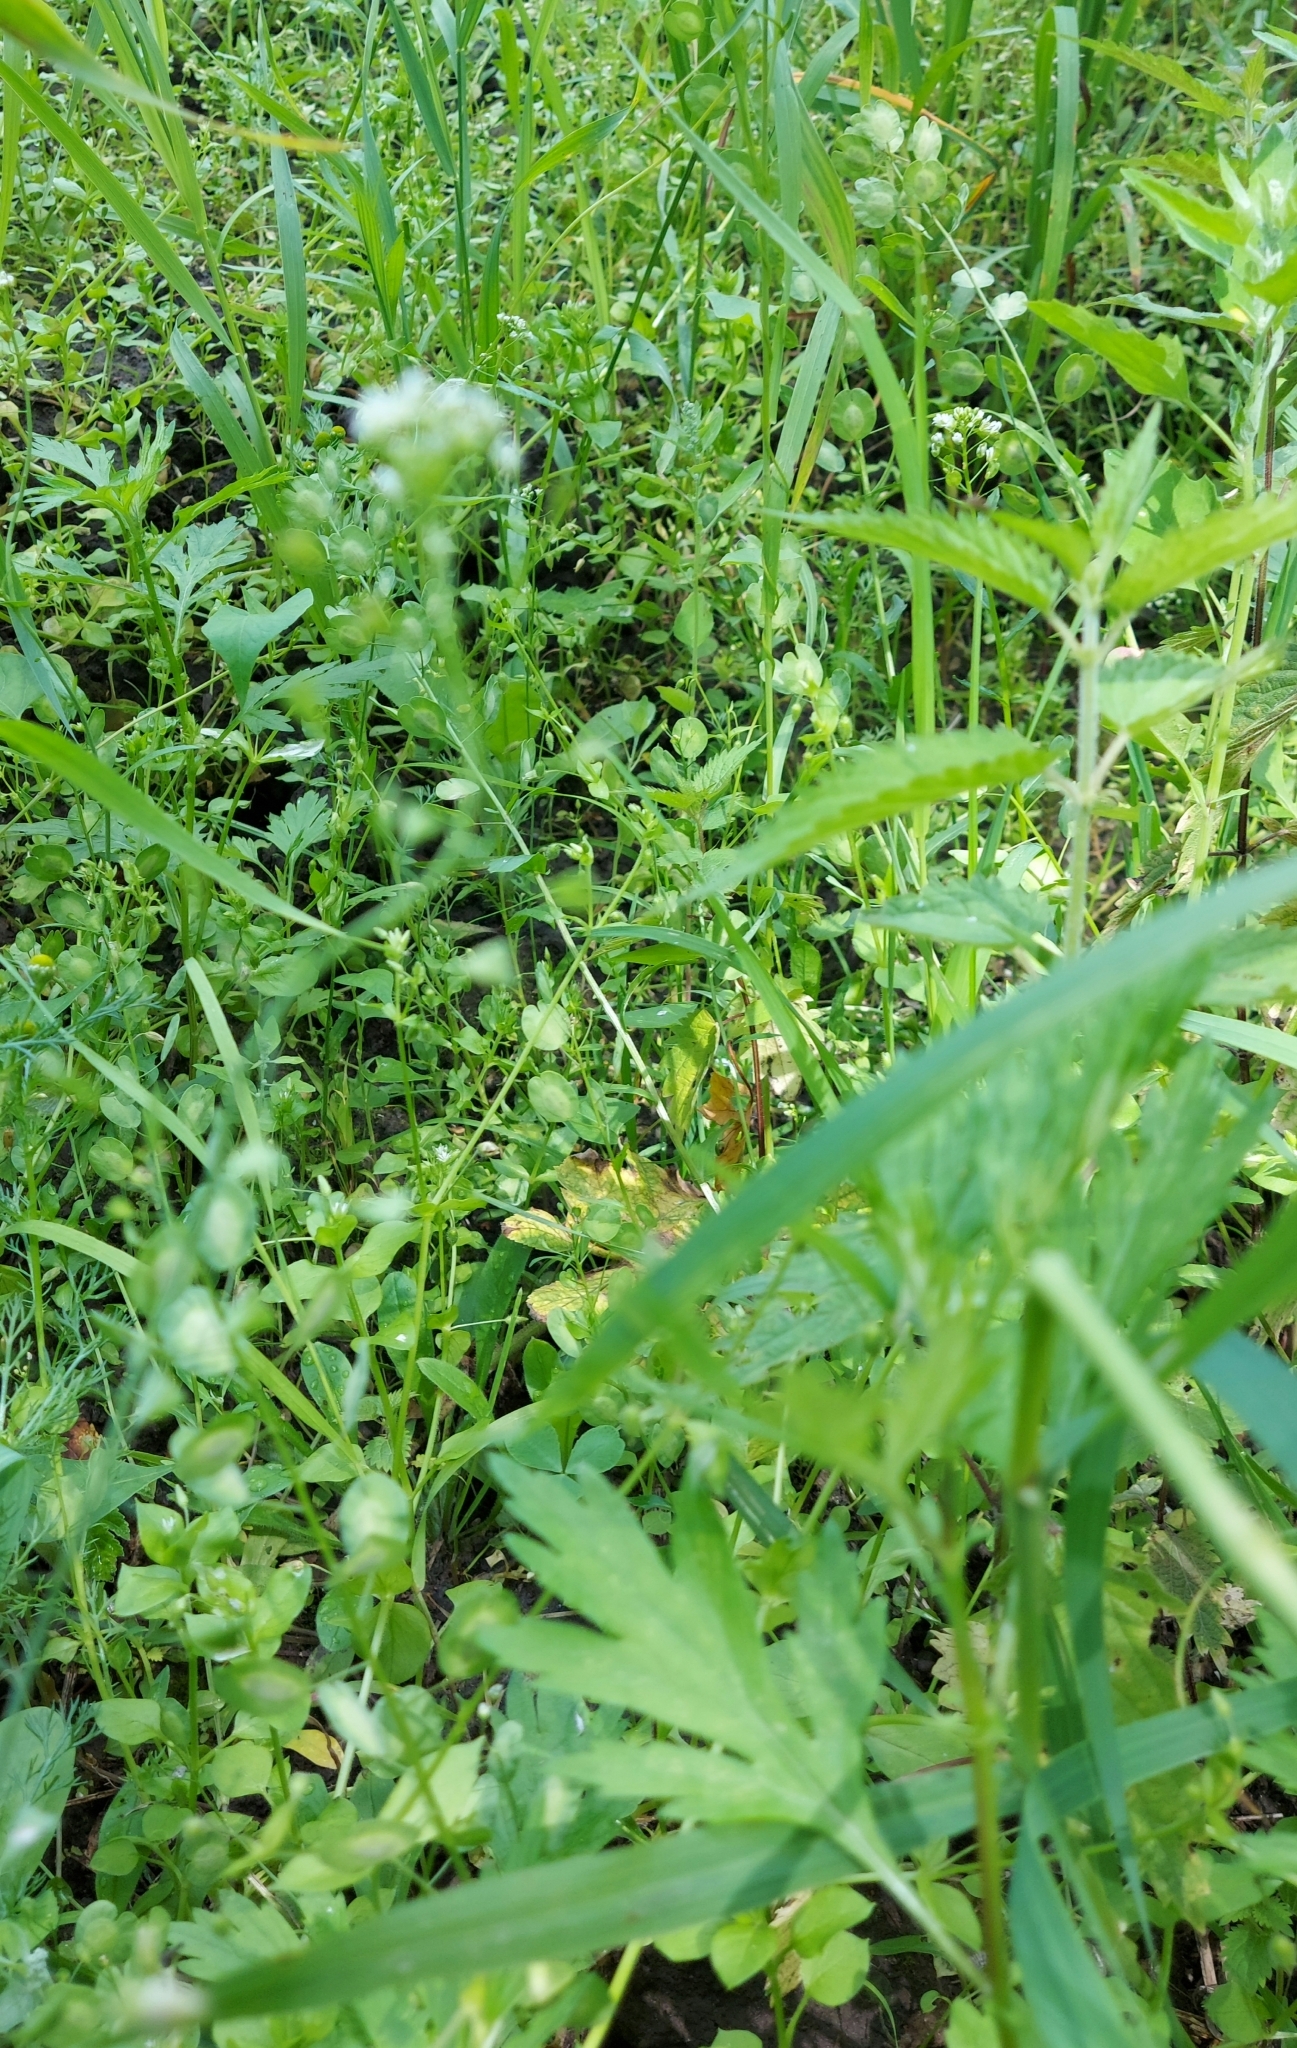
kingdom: Plantae
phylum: Tracheophyta
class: Magnoliopsida
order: Brassicales
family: Brassicaceae
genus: Capsella
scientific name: Capsella bursa-pastoris
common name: Shepherd's purse
